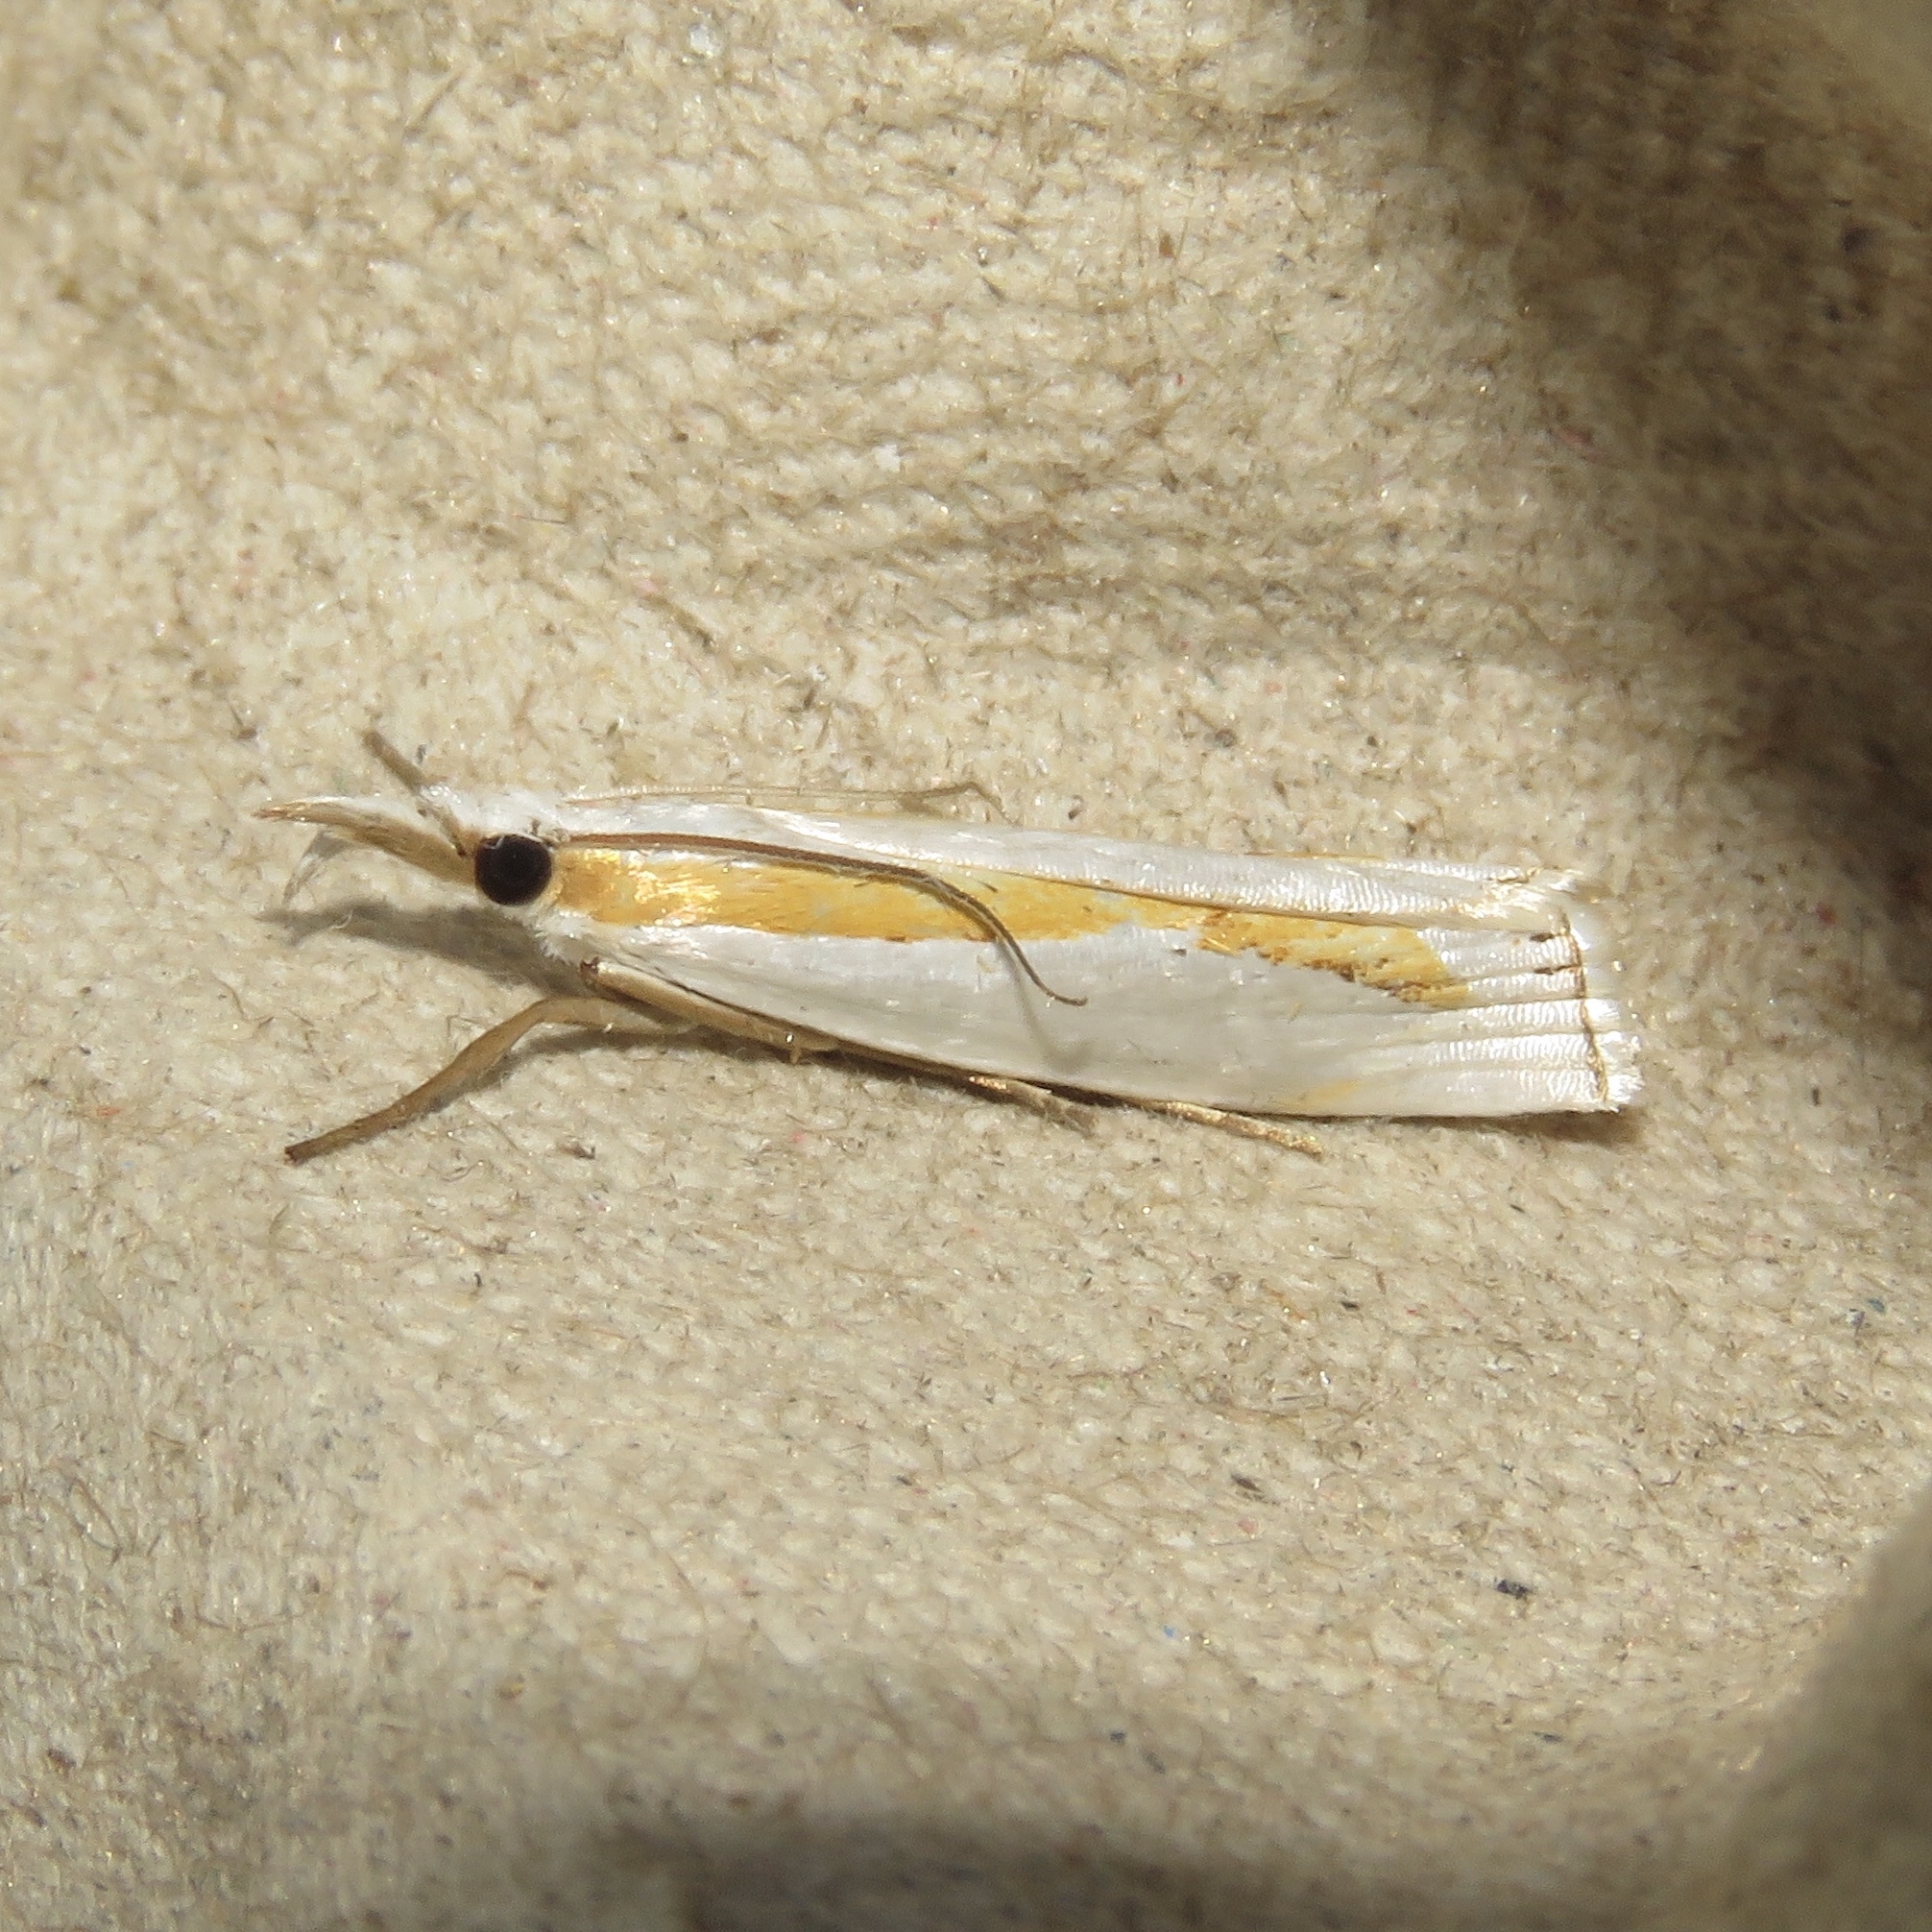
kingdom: Animalia
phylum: Arthropoda
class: Insecta
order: Lepidoptera
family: Crambidae
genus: Crambus
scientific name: Crambus girardellus
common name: Girard's grass-veneer
